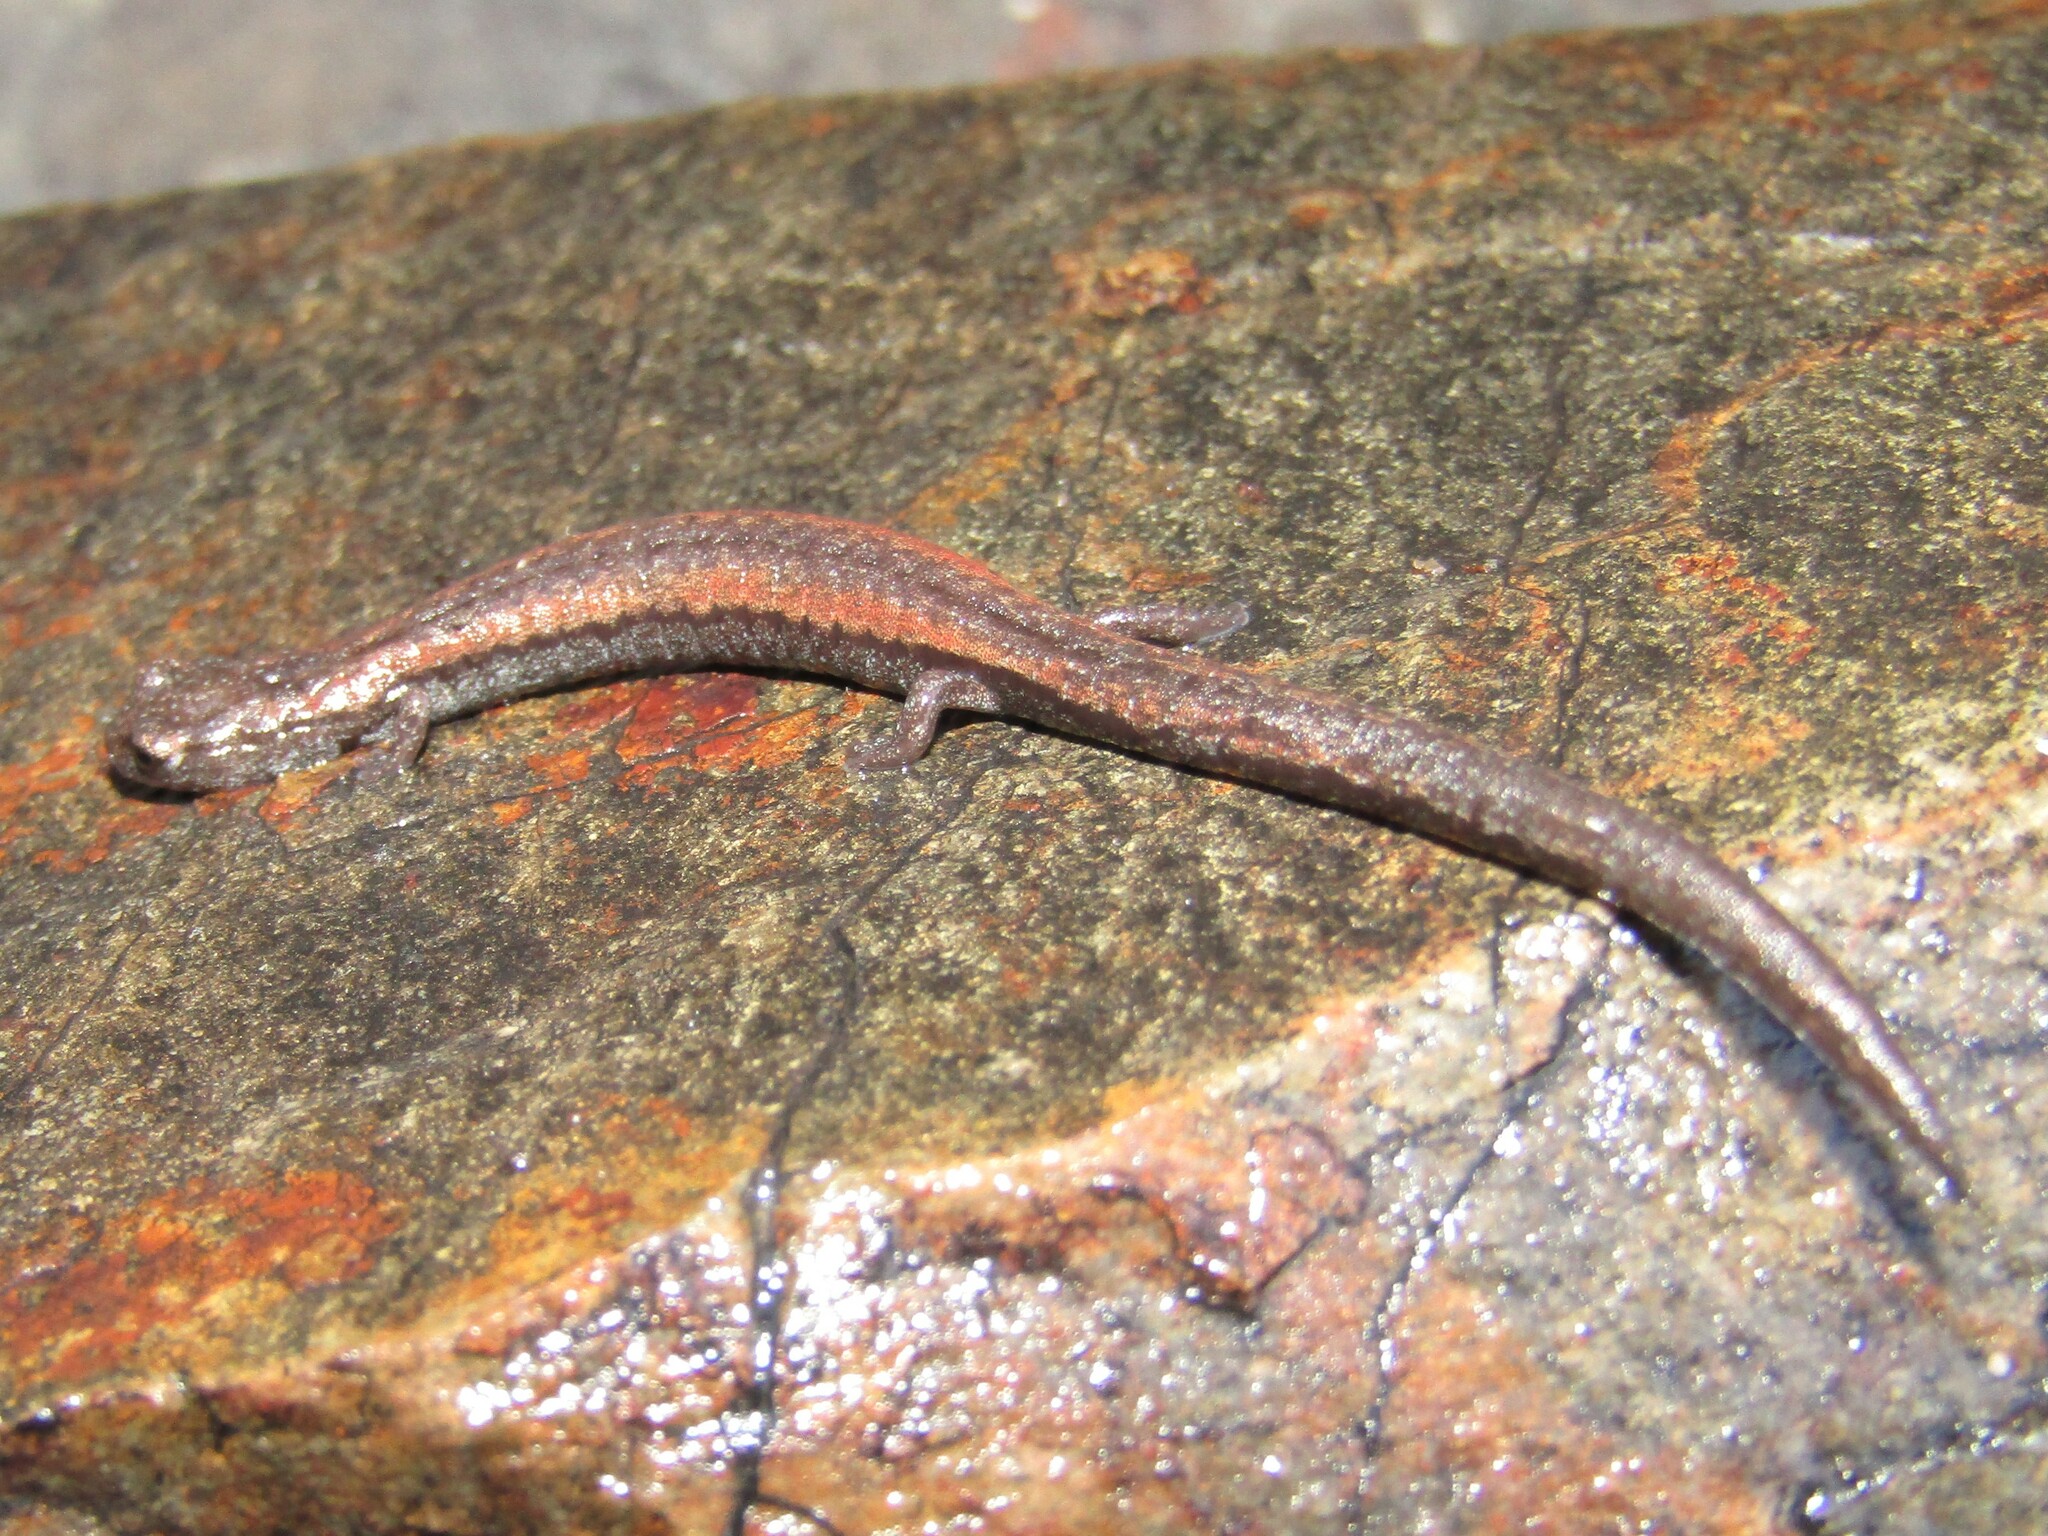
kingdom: Animalia
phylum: Chordata
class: Amphibia
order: Caudata
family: Plethodontidae
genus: Batrachoseps
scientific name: Batrachoseps bramei
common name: Fairview slender salamander
